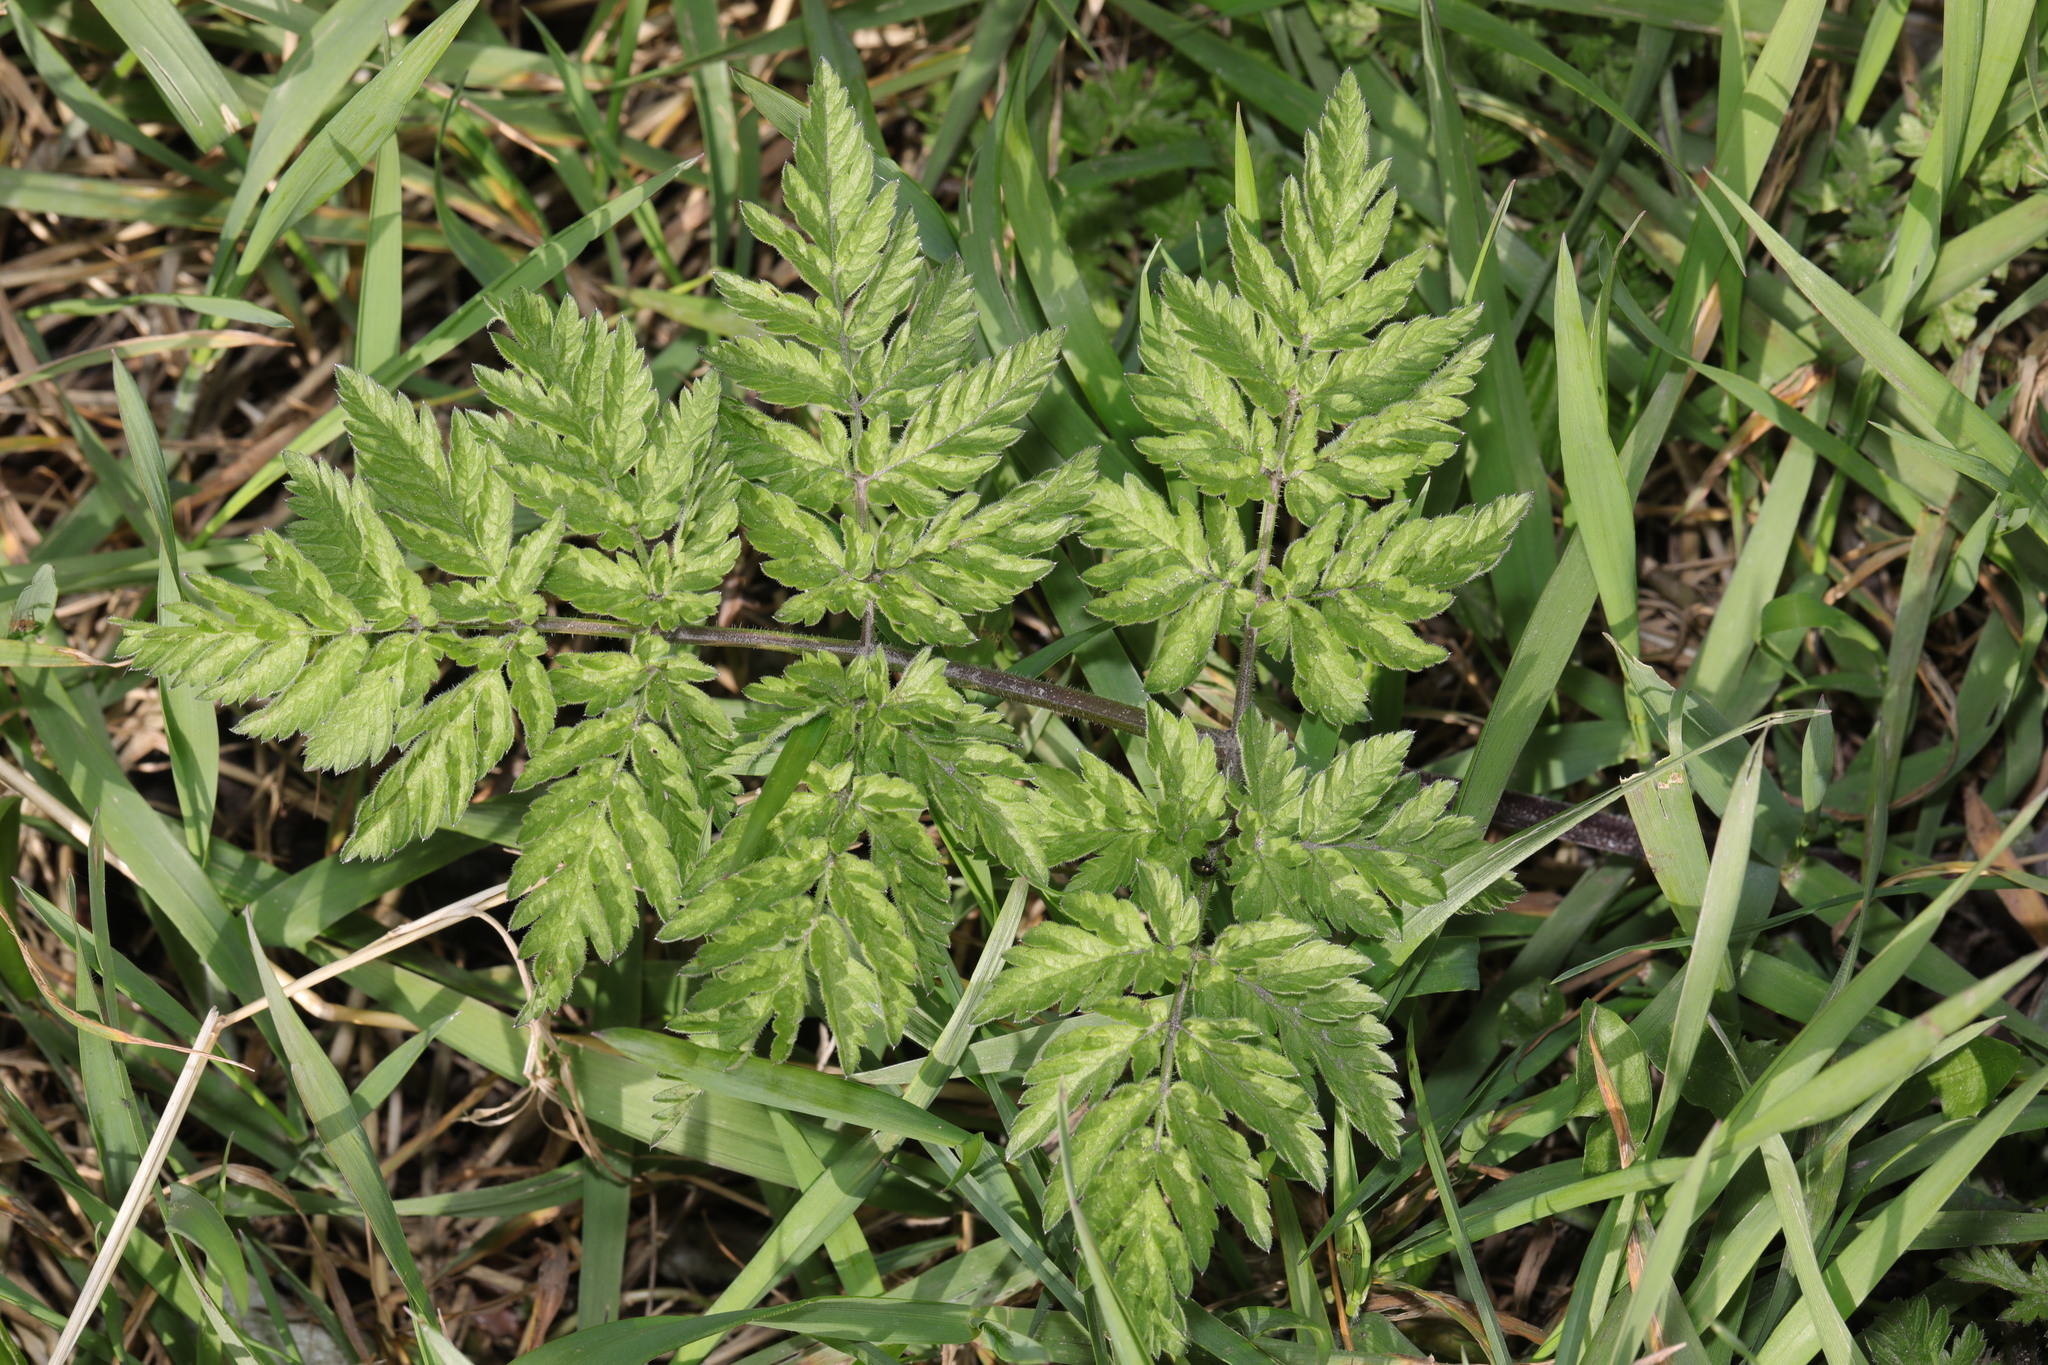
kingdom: Plantae
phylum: Tracheophyta
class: Magnoliopsida
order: Apiales
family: Apiaceae
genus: Anthriscus
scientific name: Anthriscus sylvestris
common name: Cow parsley
